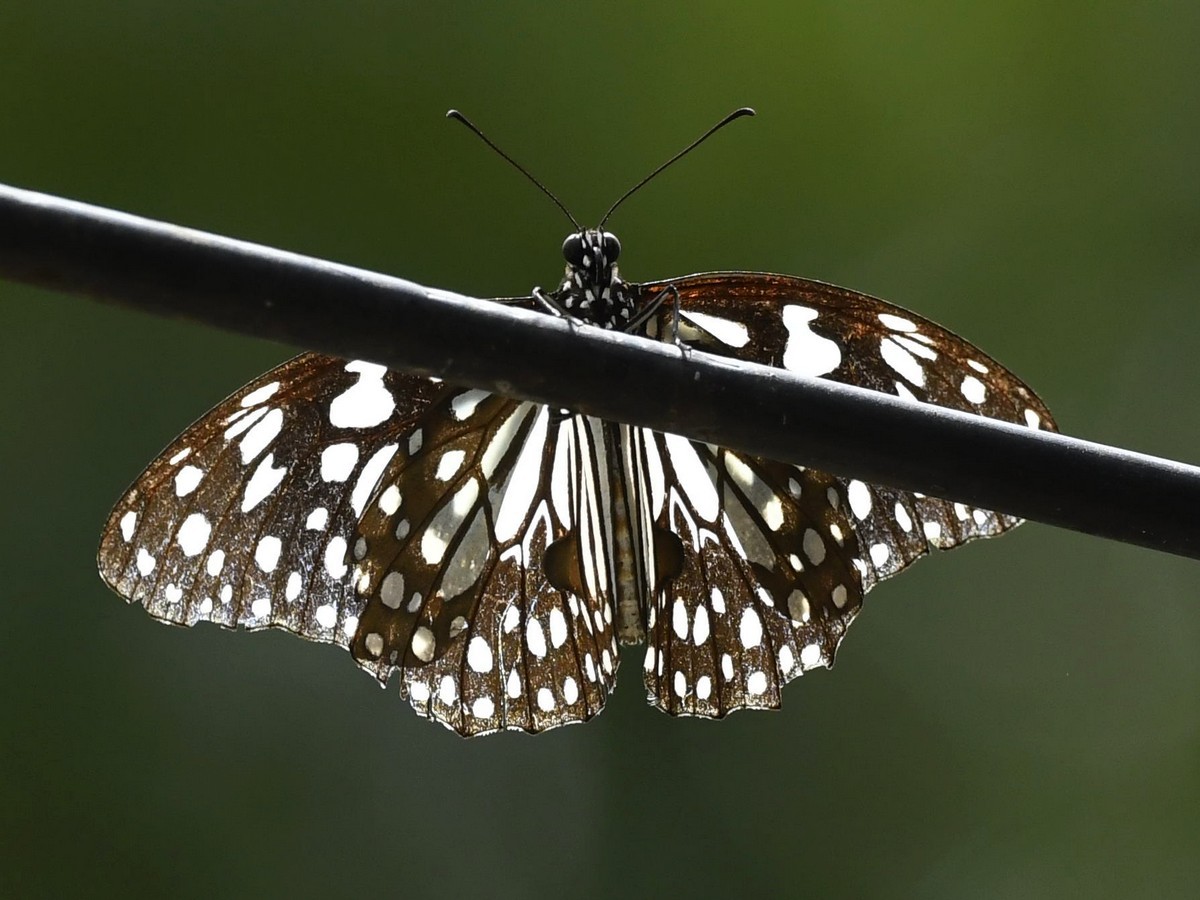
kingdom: Animalia
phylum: Arthropoda
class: Insecta
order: Lepidoptera
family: Nymphalidae
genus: Tirumala
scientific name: Tirumala limniace
